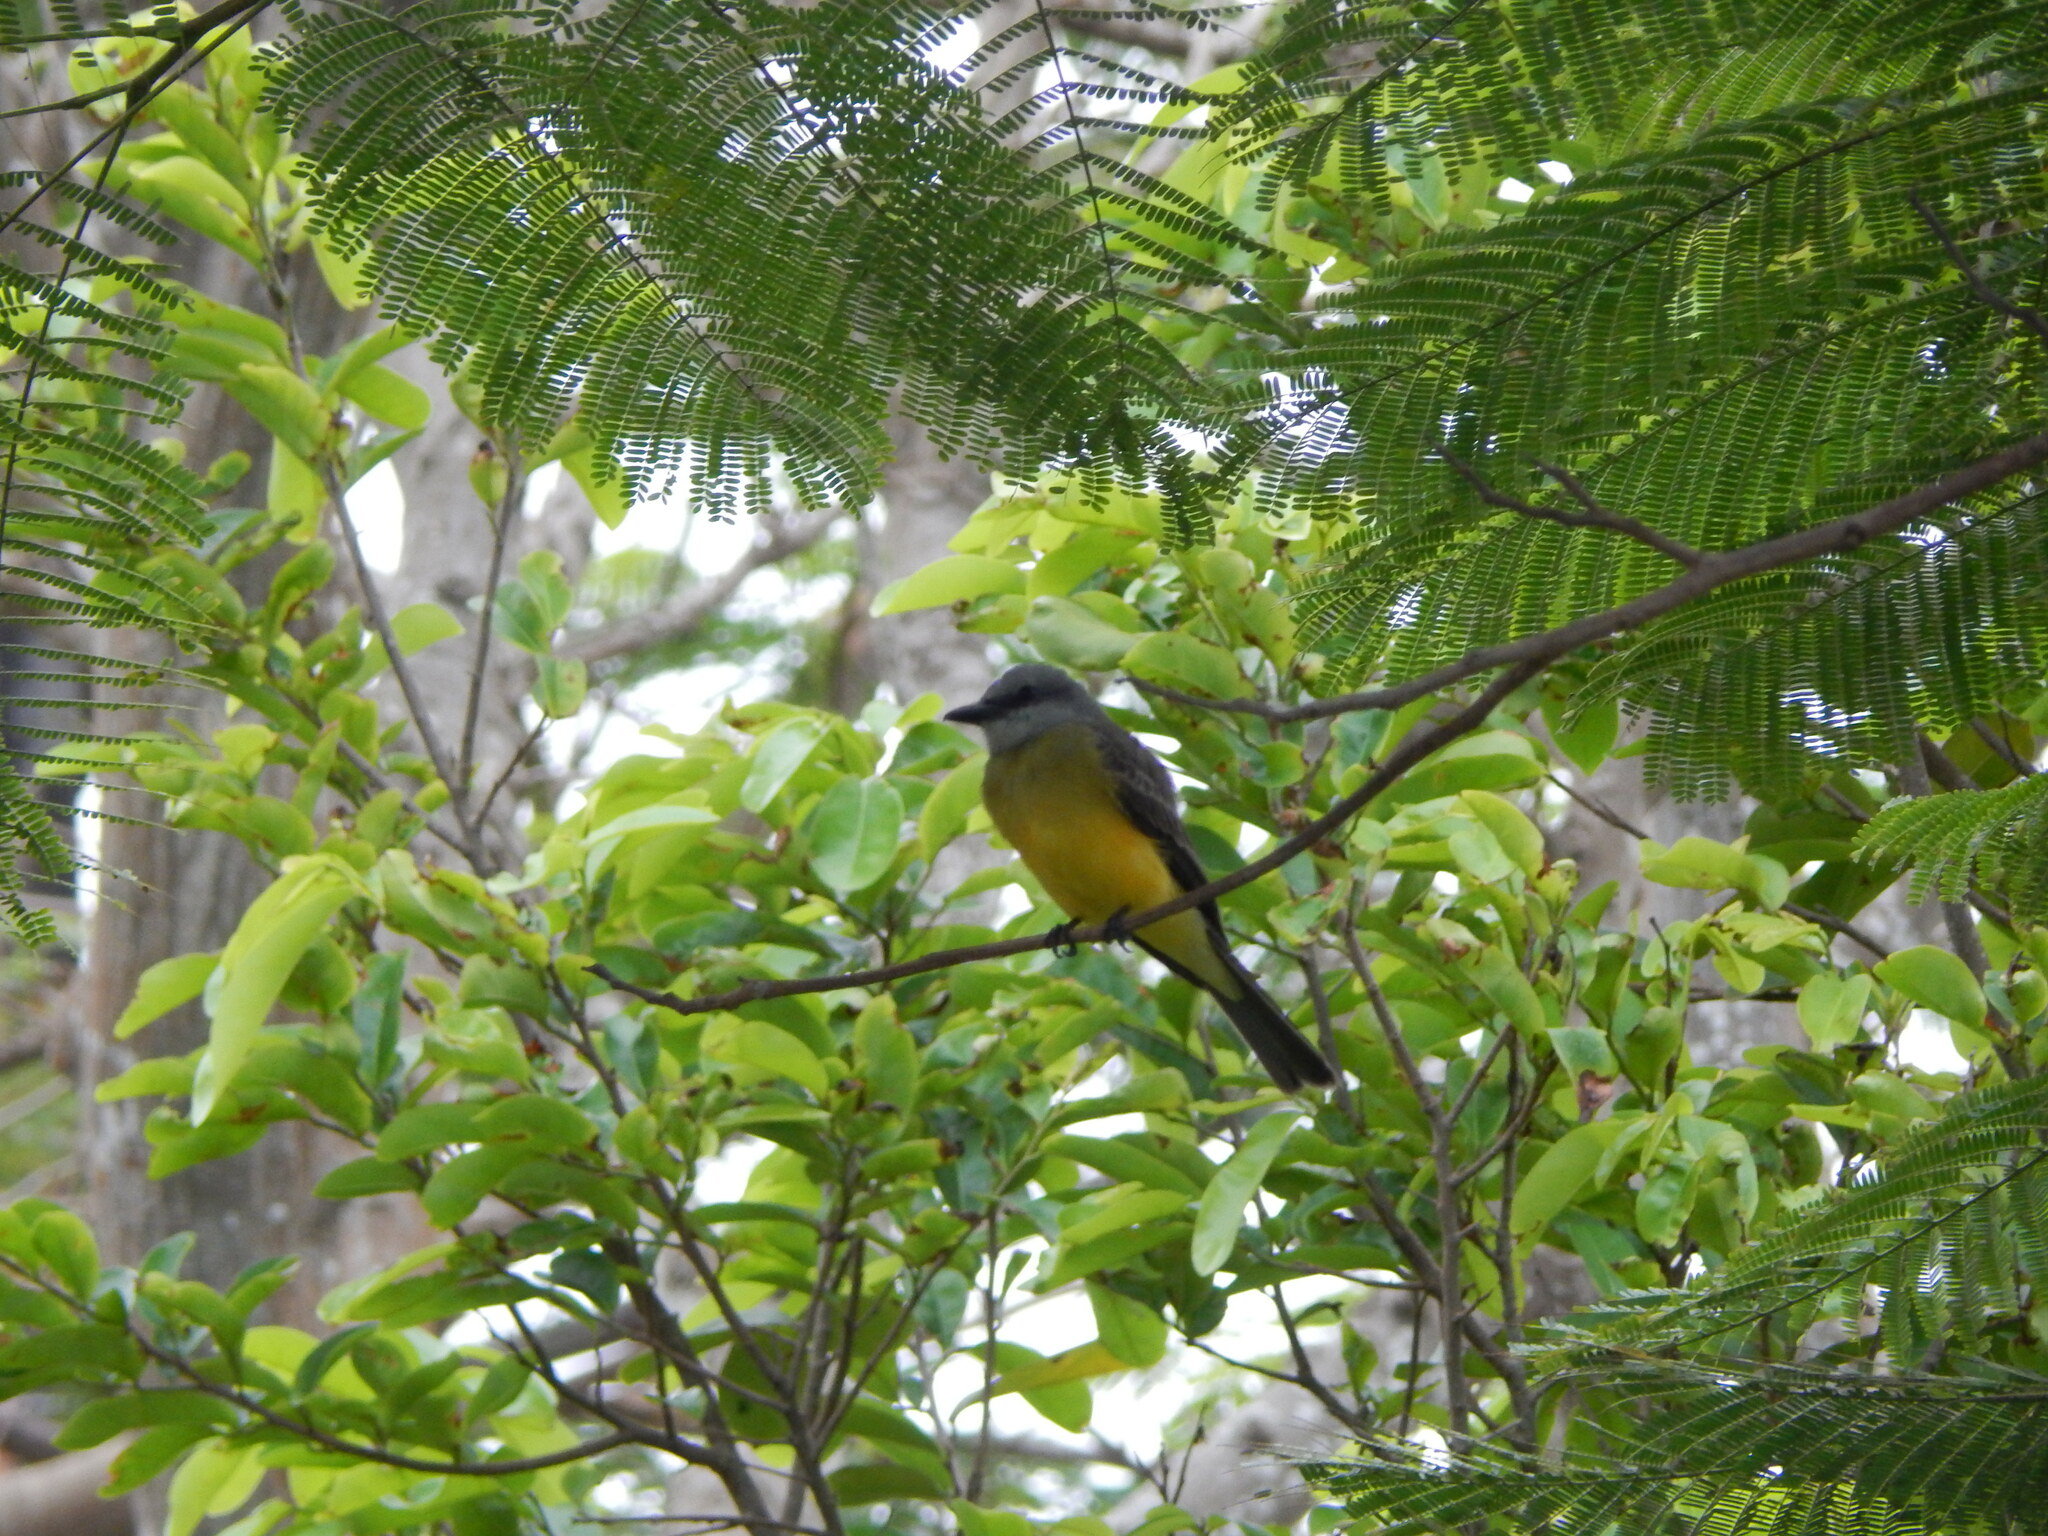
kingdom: Animalia
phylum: Chordata
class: Aves
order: Passeriformes
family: Tyrannidae
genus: Tyrannus
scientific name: Tyrannus melancholicus
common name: Tropical kingbird
